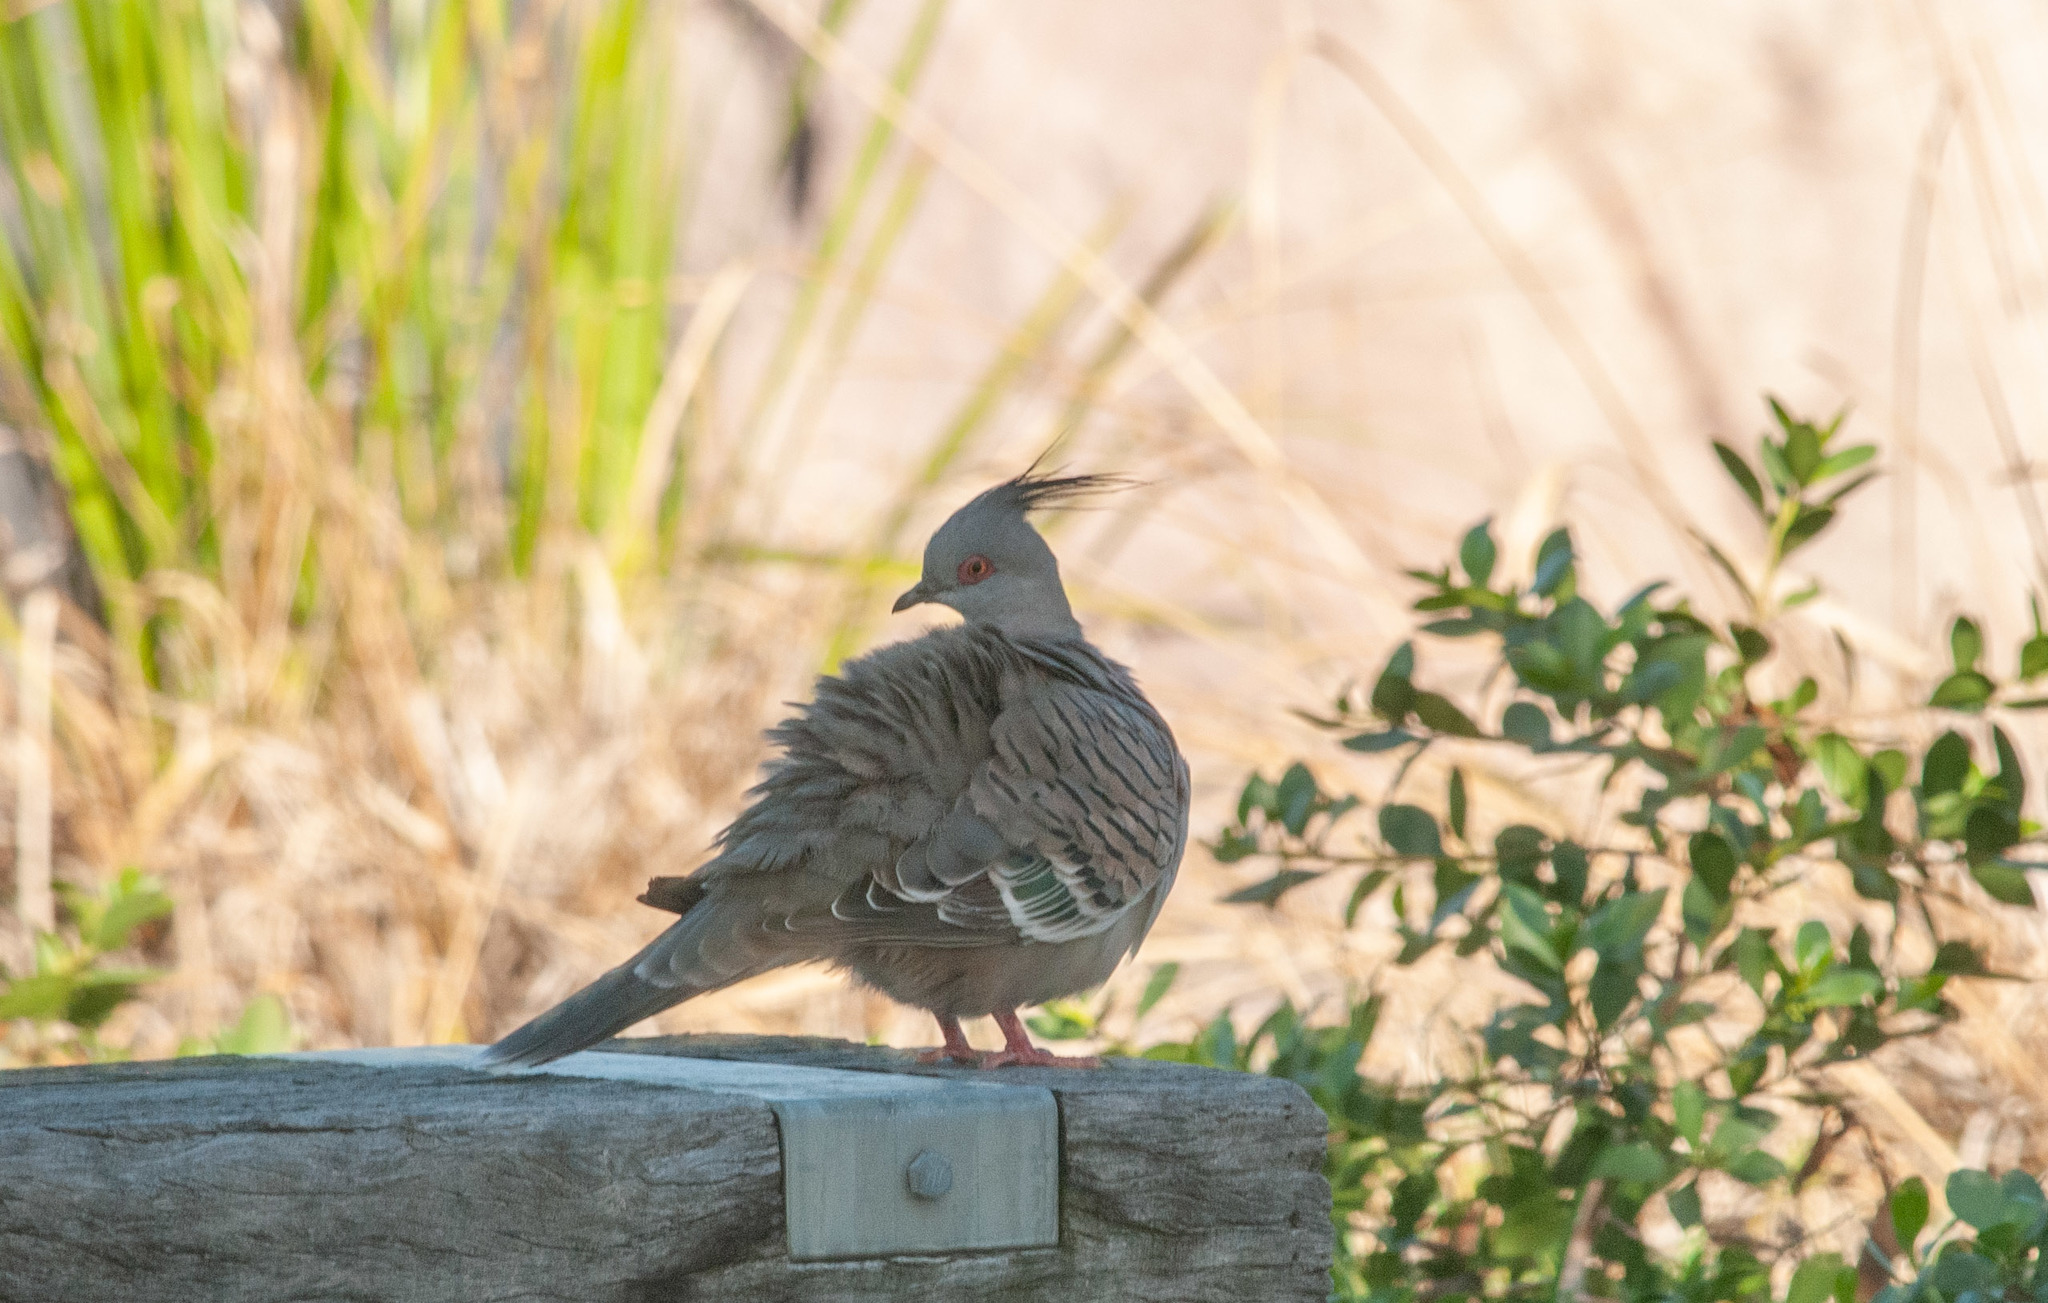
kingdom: Animalia
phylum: Chordata
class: Aves
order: Columbiformes
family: Columbidae
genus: Ocyphaps
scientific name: Ocyphaps lophotes
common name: Crested pigeon
